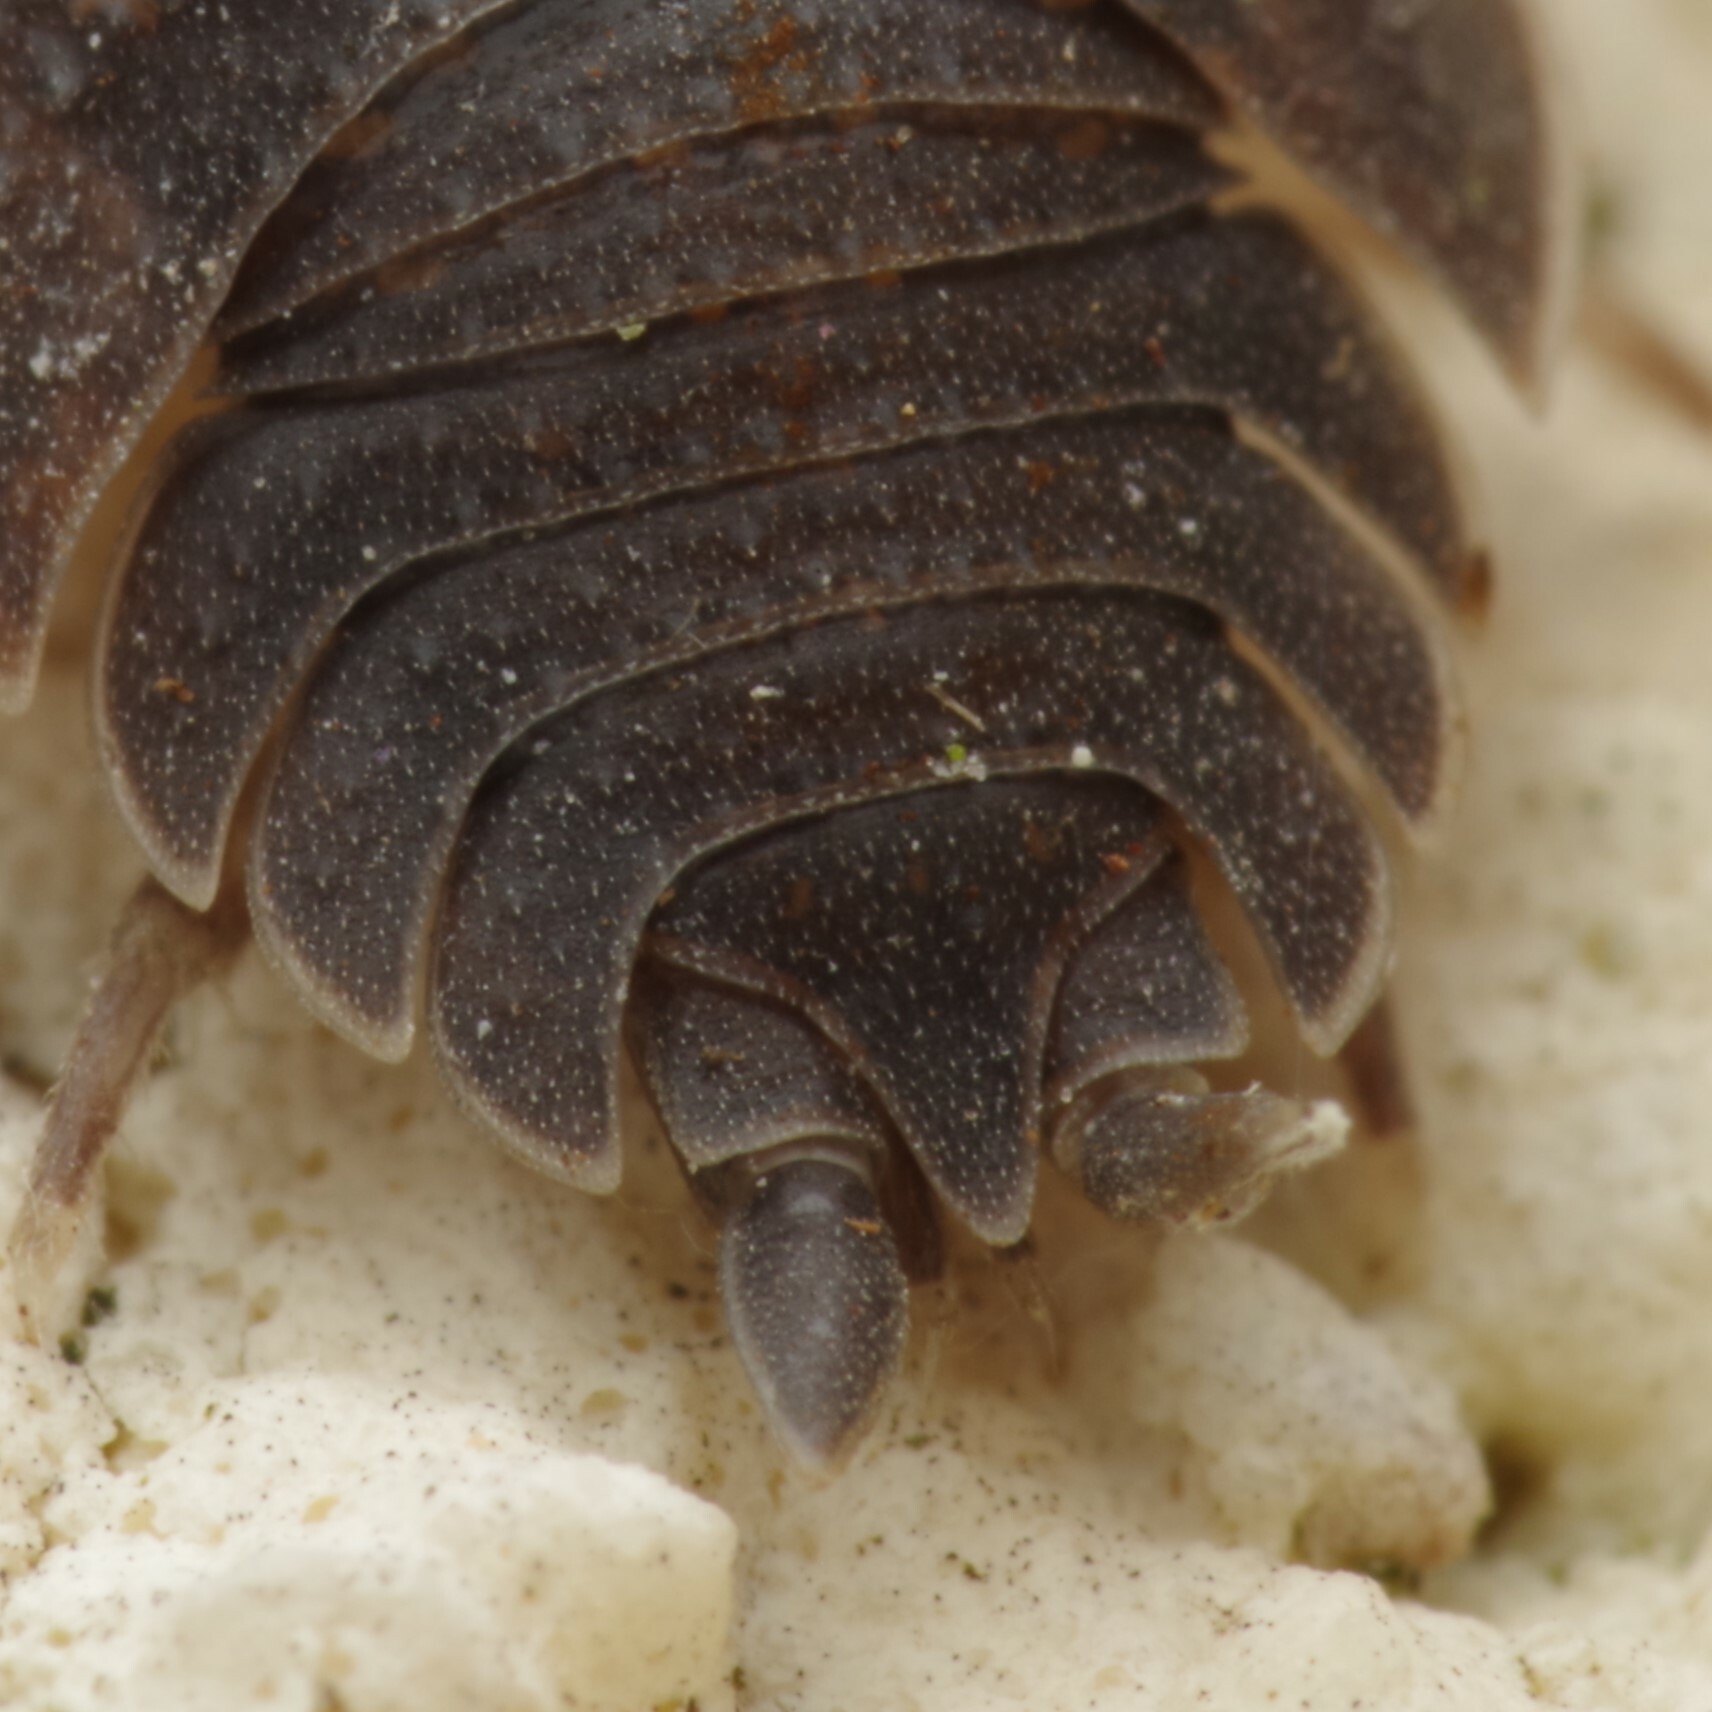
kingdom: Animalia
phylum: Arthropoda
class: Malacostraca
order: Isopoda
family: Porcellionidae
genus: Porcellio
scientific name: Porcellio scaber
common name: Common rough woodlouse
